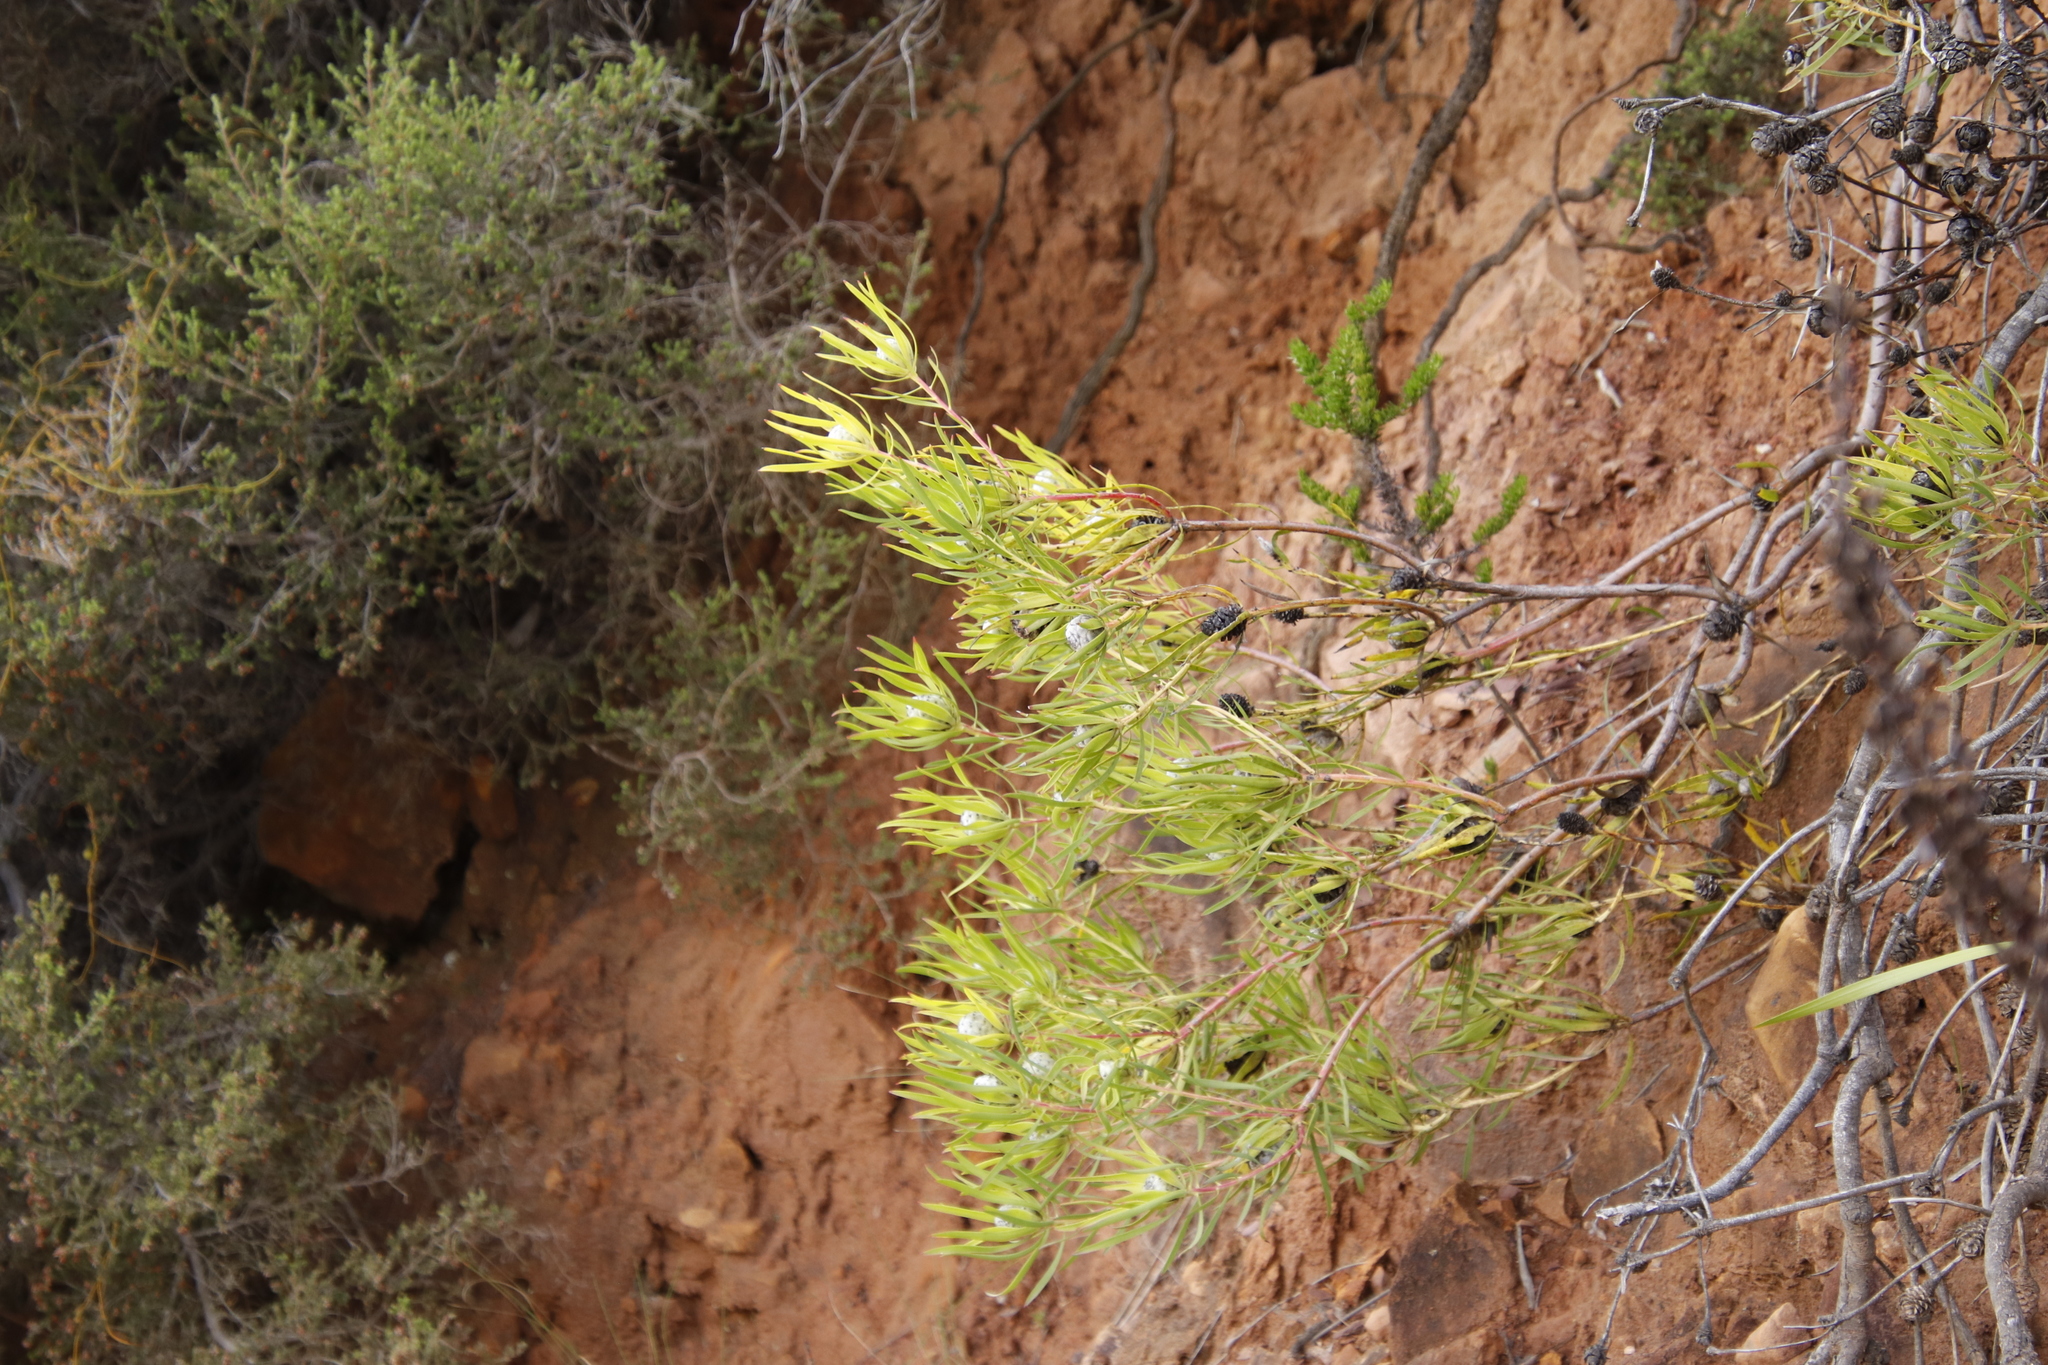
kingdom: Plantae
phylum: Tracheophyta
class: Magnoliopsida
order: Proteales
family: Proteaceae
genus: Leucadendron
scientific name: Leucadendron salignum
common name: Common sunshine conebush
